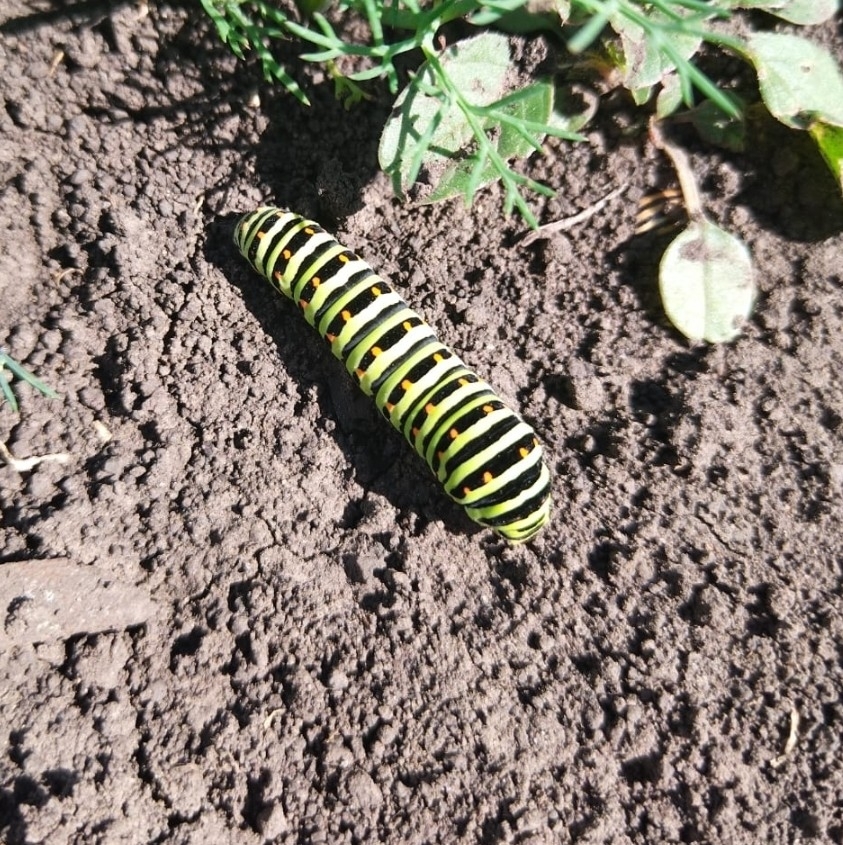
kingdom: Animalia
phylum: Arthropoda
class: Insecta
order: Lepidoptera
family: Papilionidae
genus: Papilio
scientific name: Papilio machaon
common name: Swallowtail
